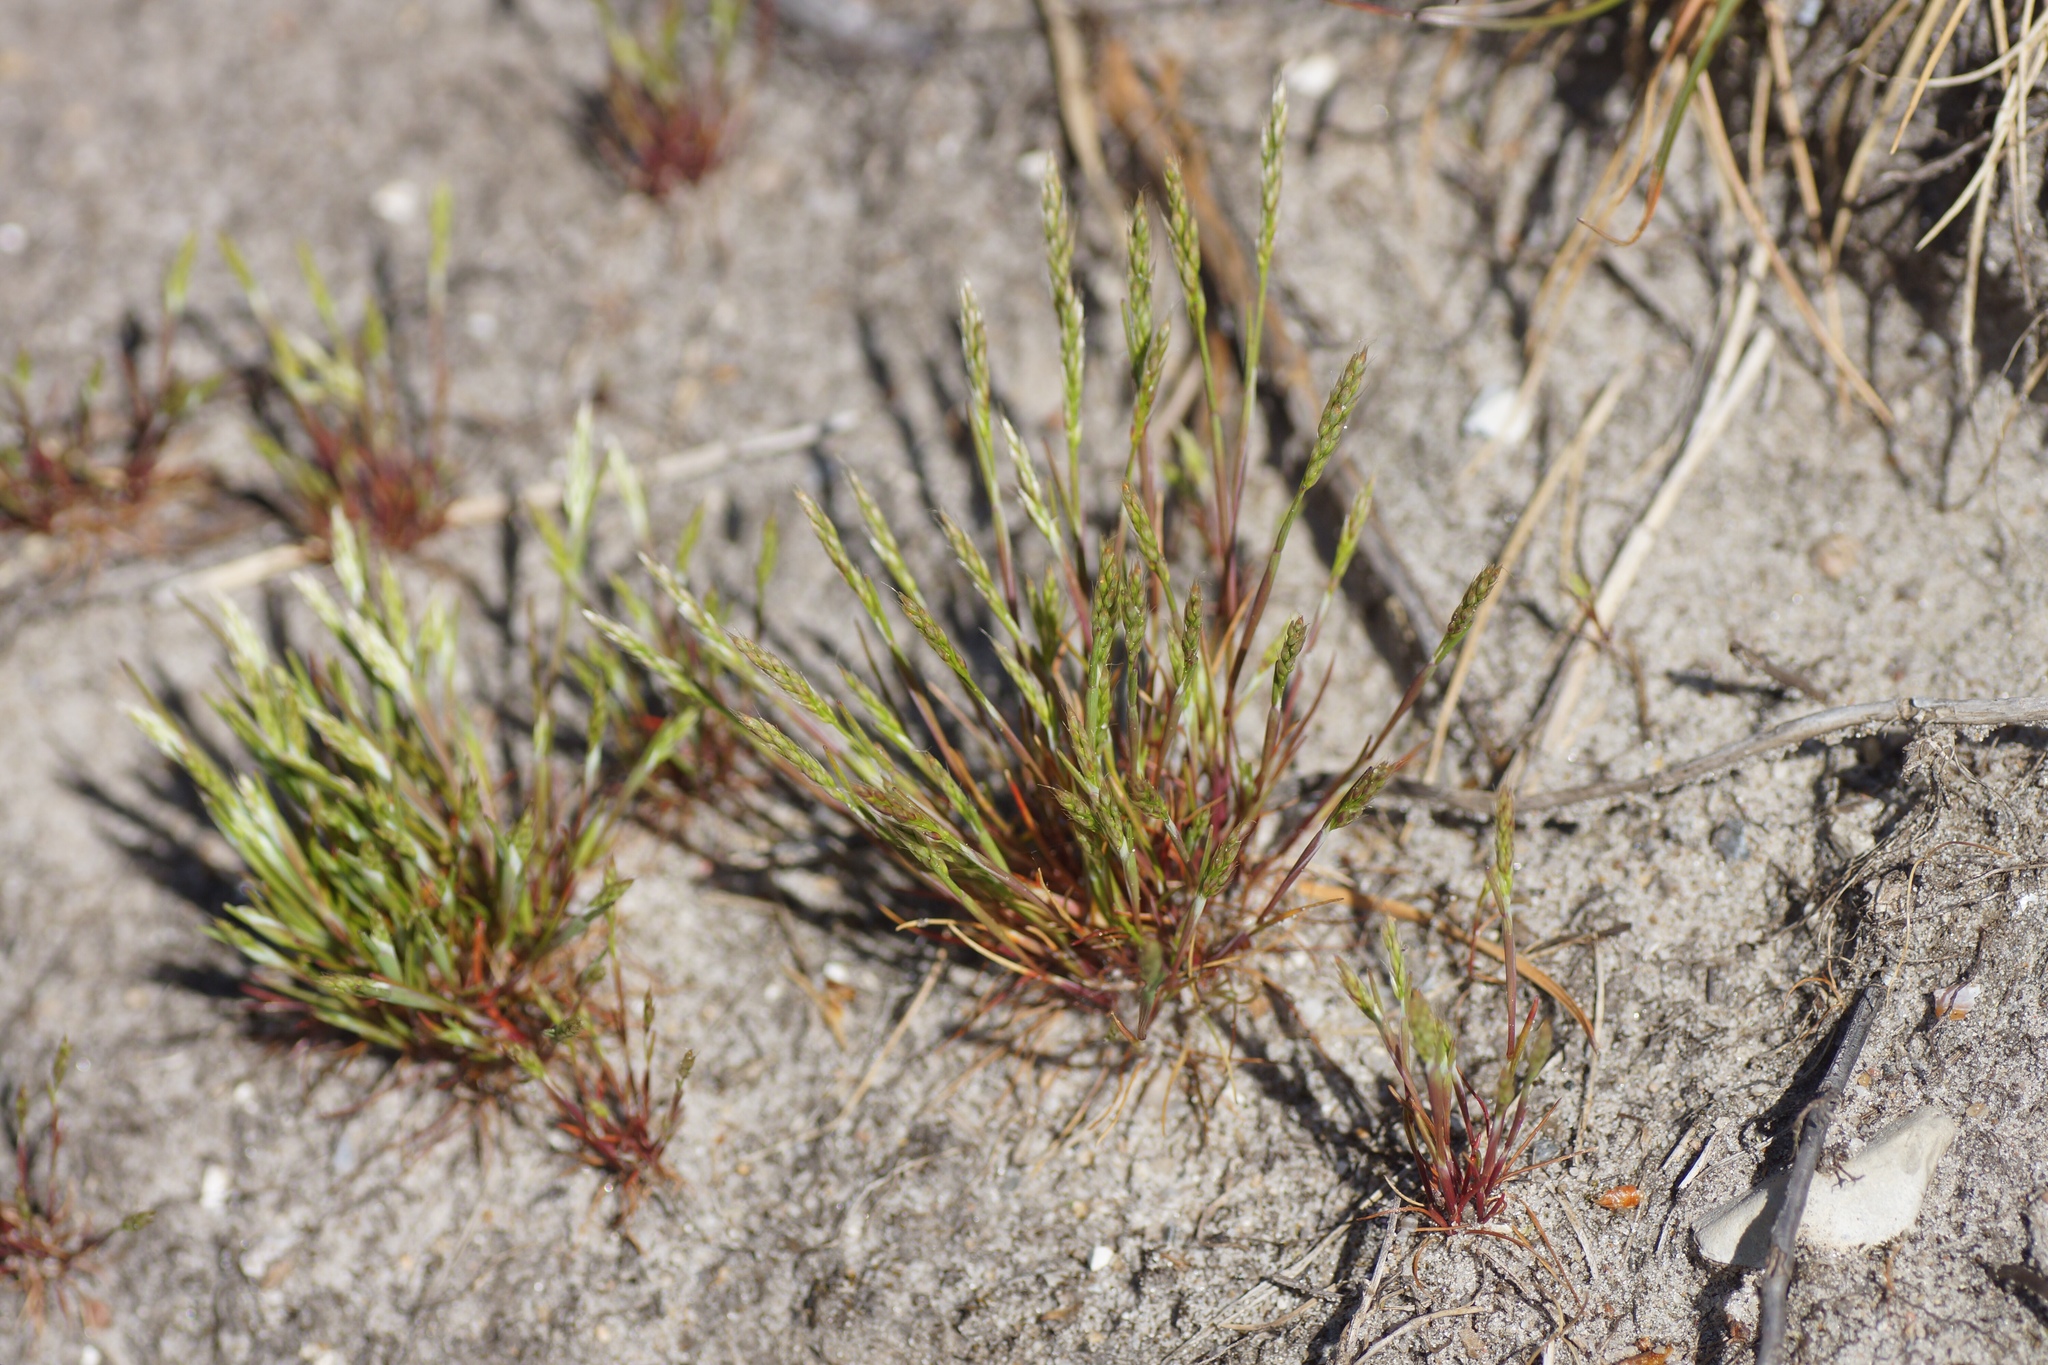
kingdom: Plantae
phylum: Tracheophyta
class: Liliopsida
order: Poales
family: Poaceae
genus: Aira
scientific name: Aira praecox
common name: Early hair-grass
